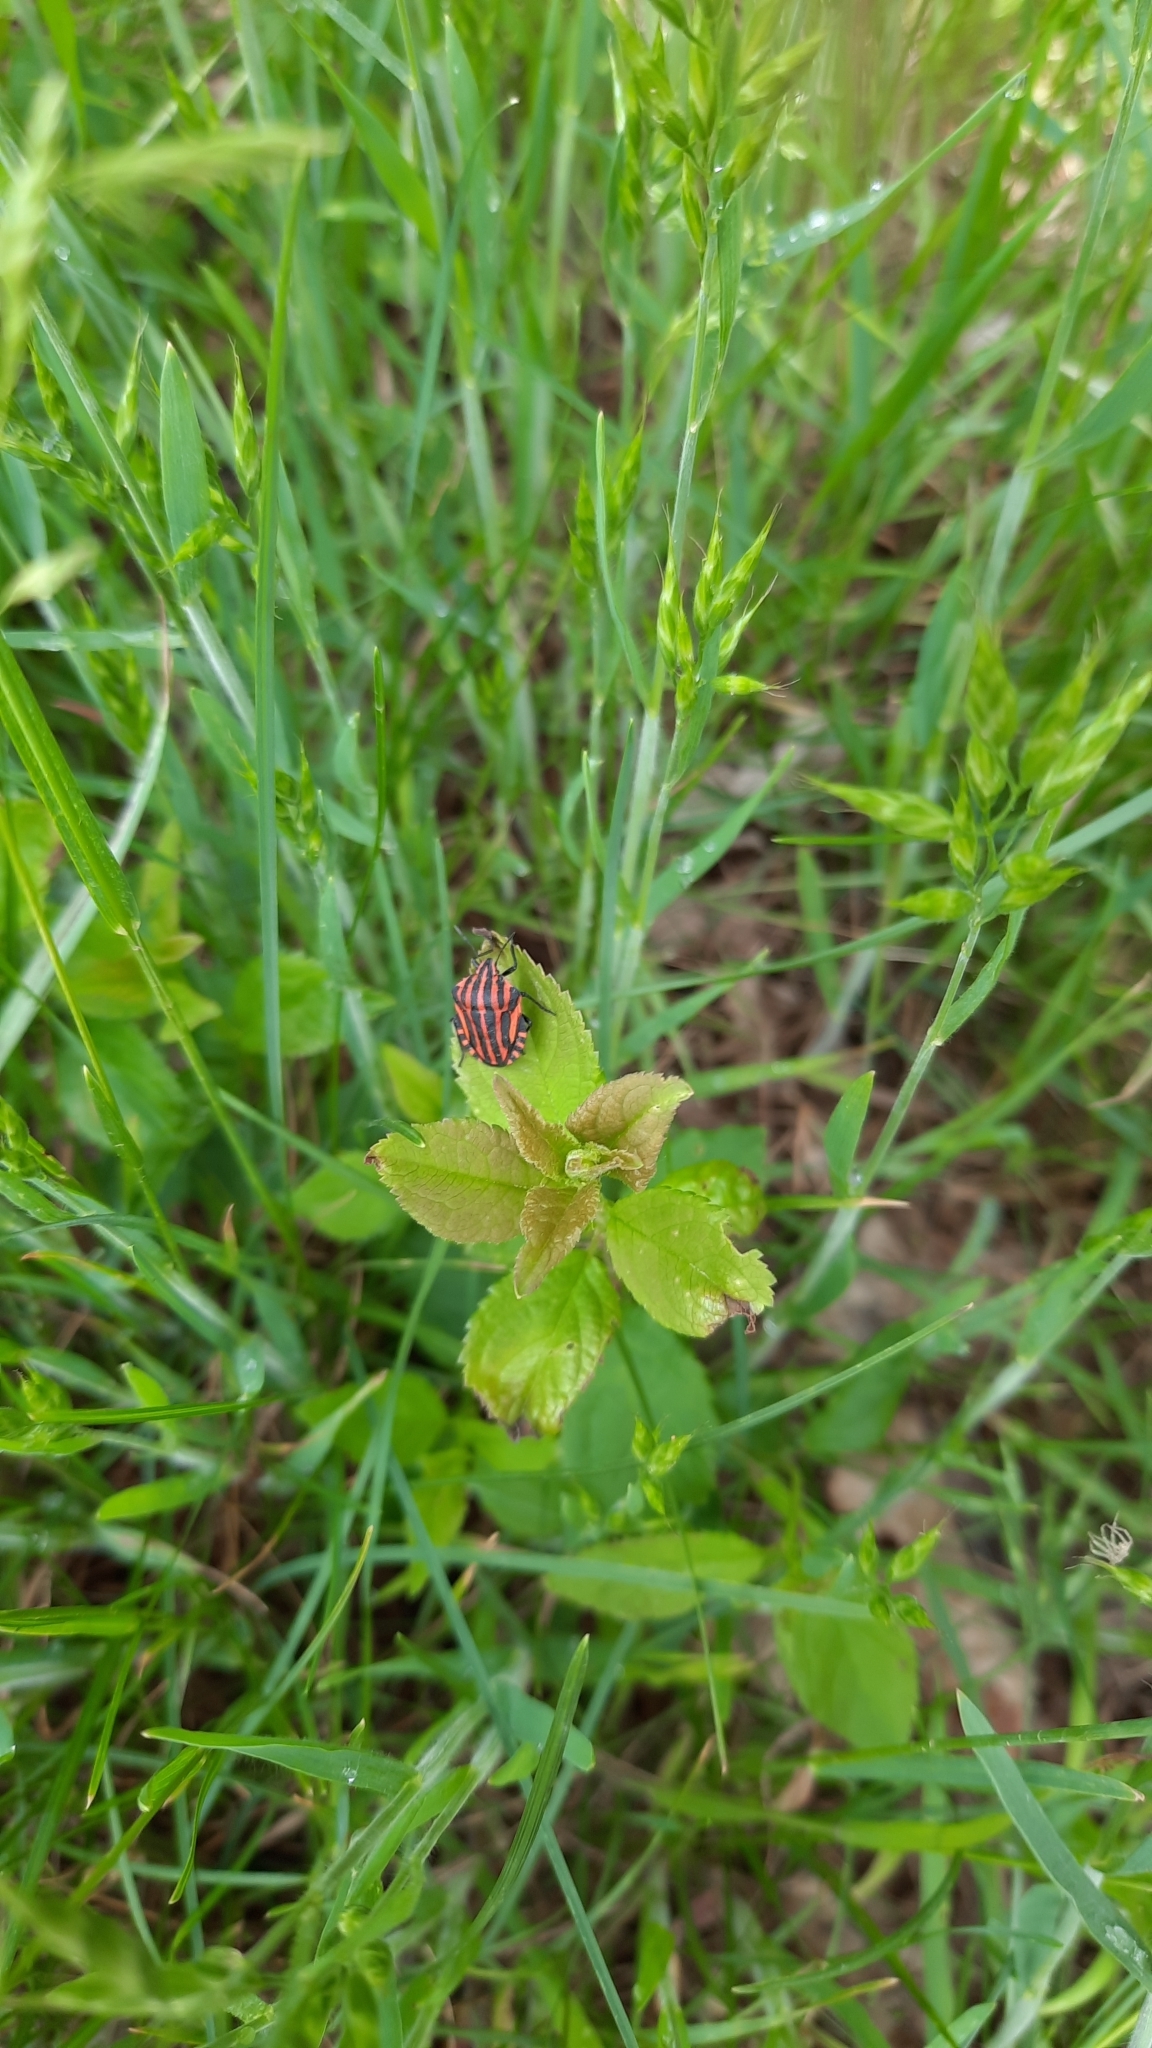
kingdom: Animalia
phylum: Arthropoda
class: Insecta
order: Hemiptera
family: Pentatomidae
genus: Graphosoma
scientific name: Graphosoma italicum
